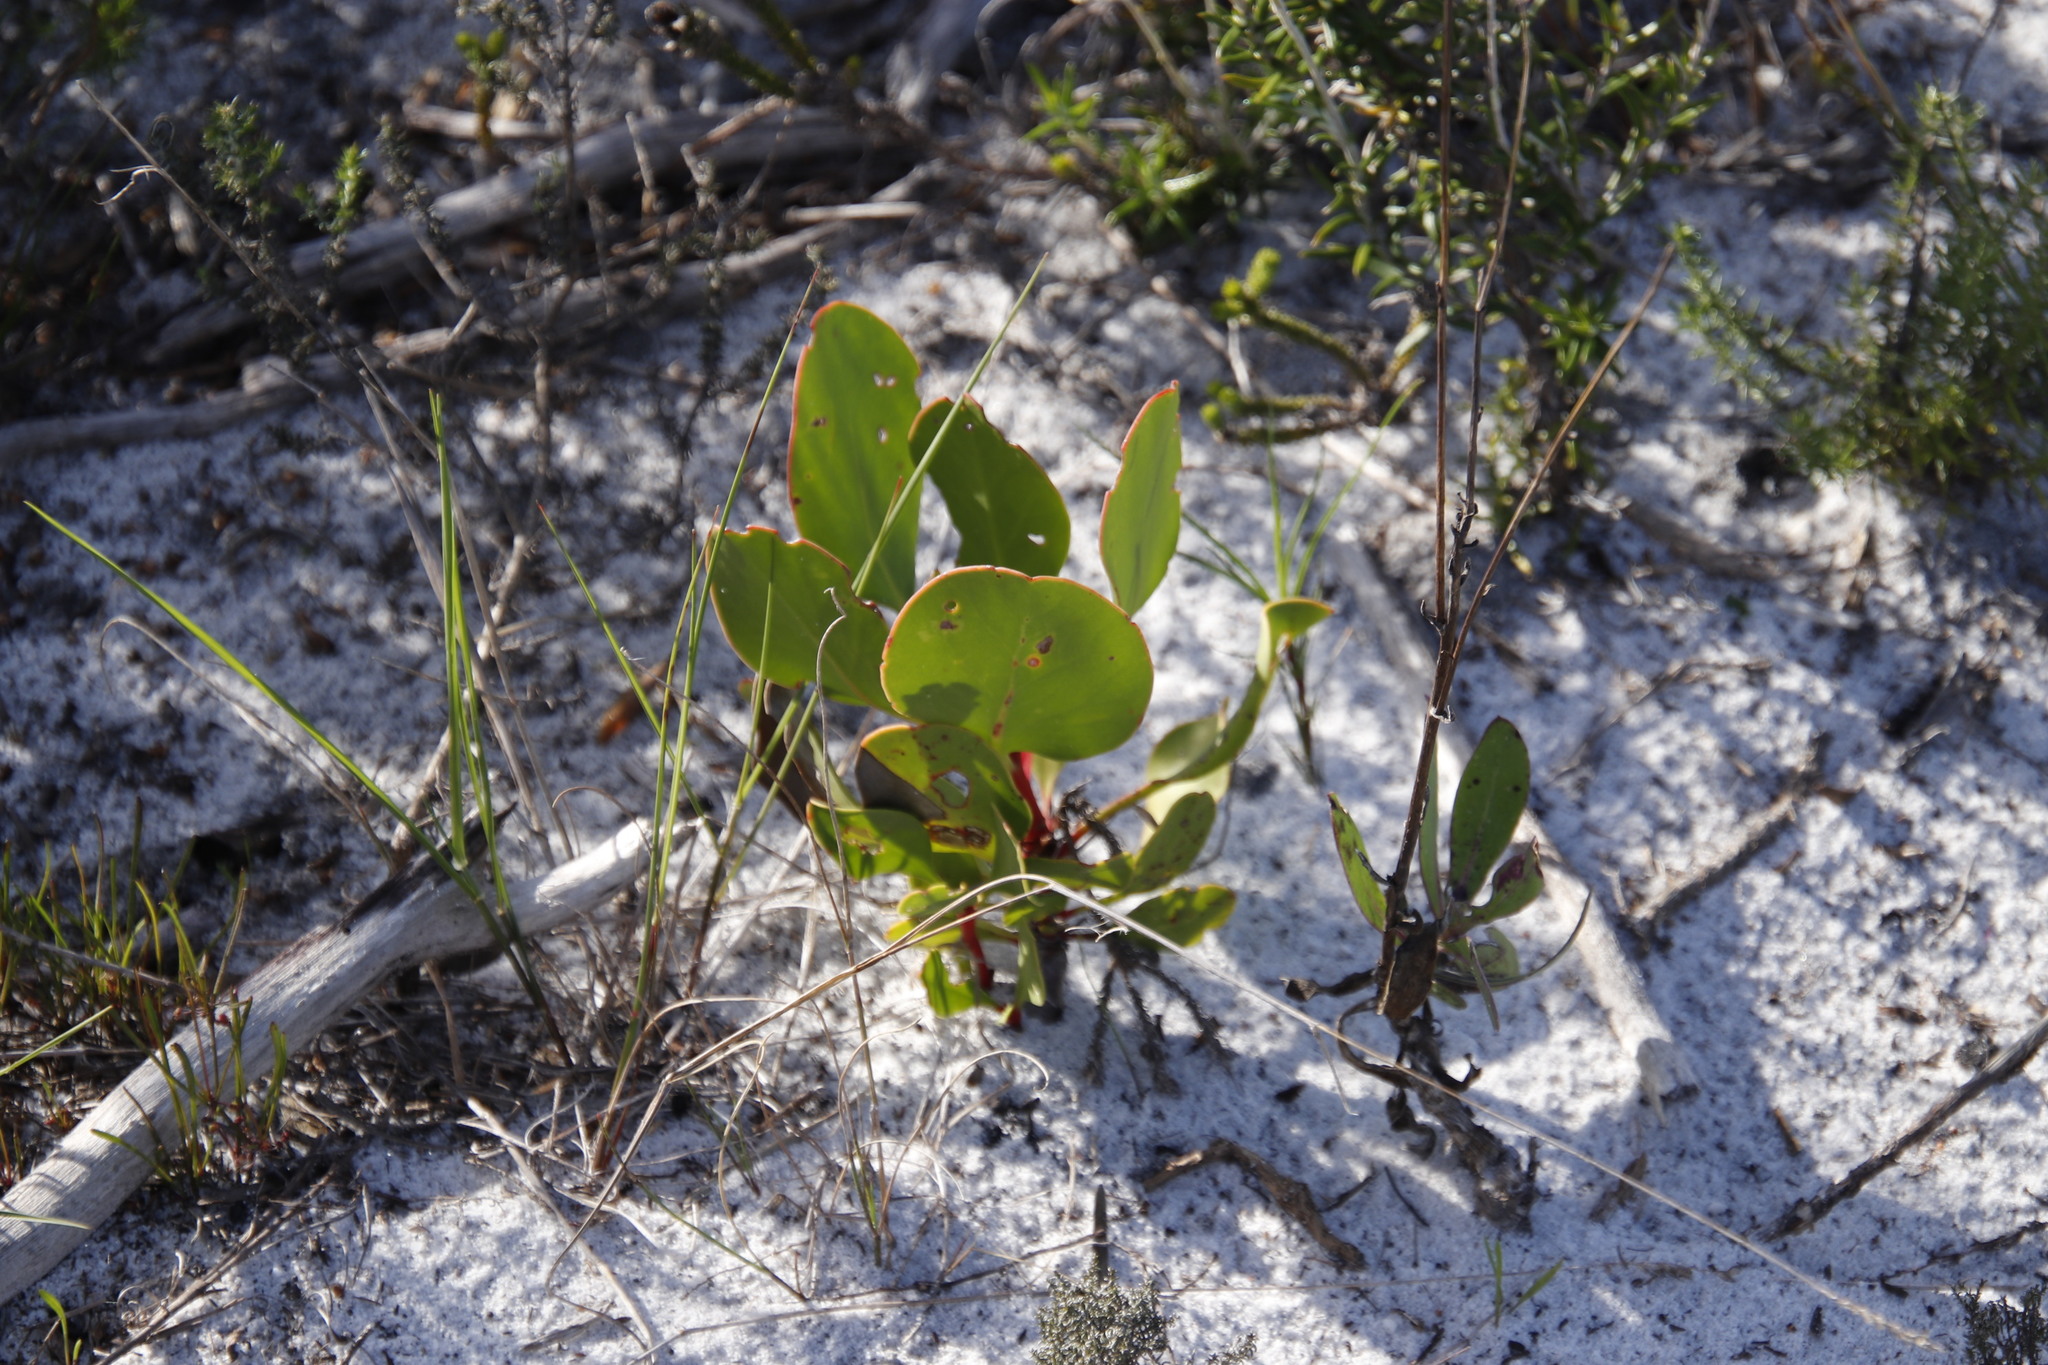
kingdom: Plantae
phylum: Tracheophyta
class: Magnoliopsida
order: Proteales
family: Proteaceae
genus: Protea
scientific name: Protea cynaroides
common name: King protea
